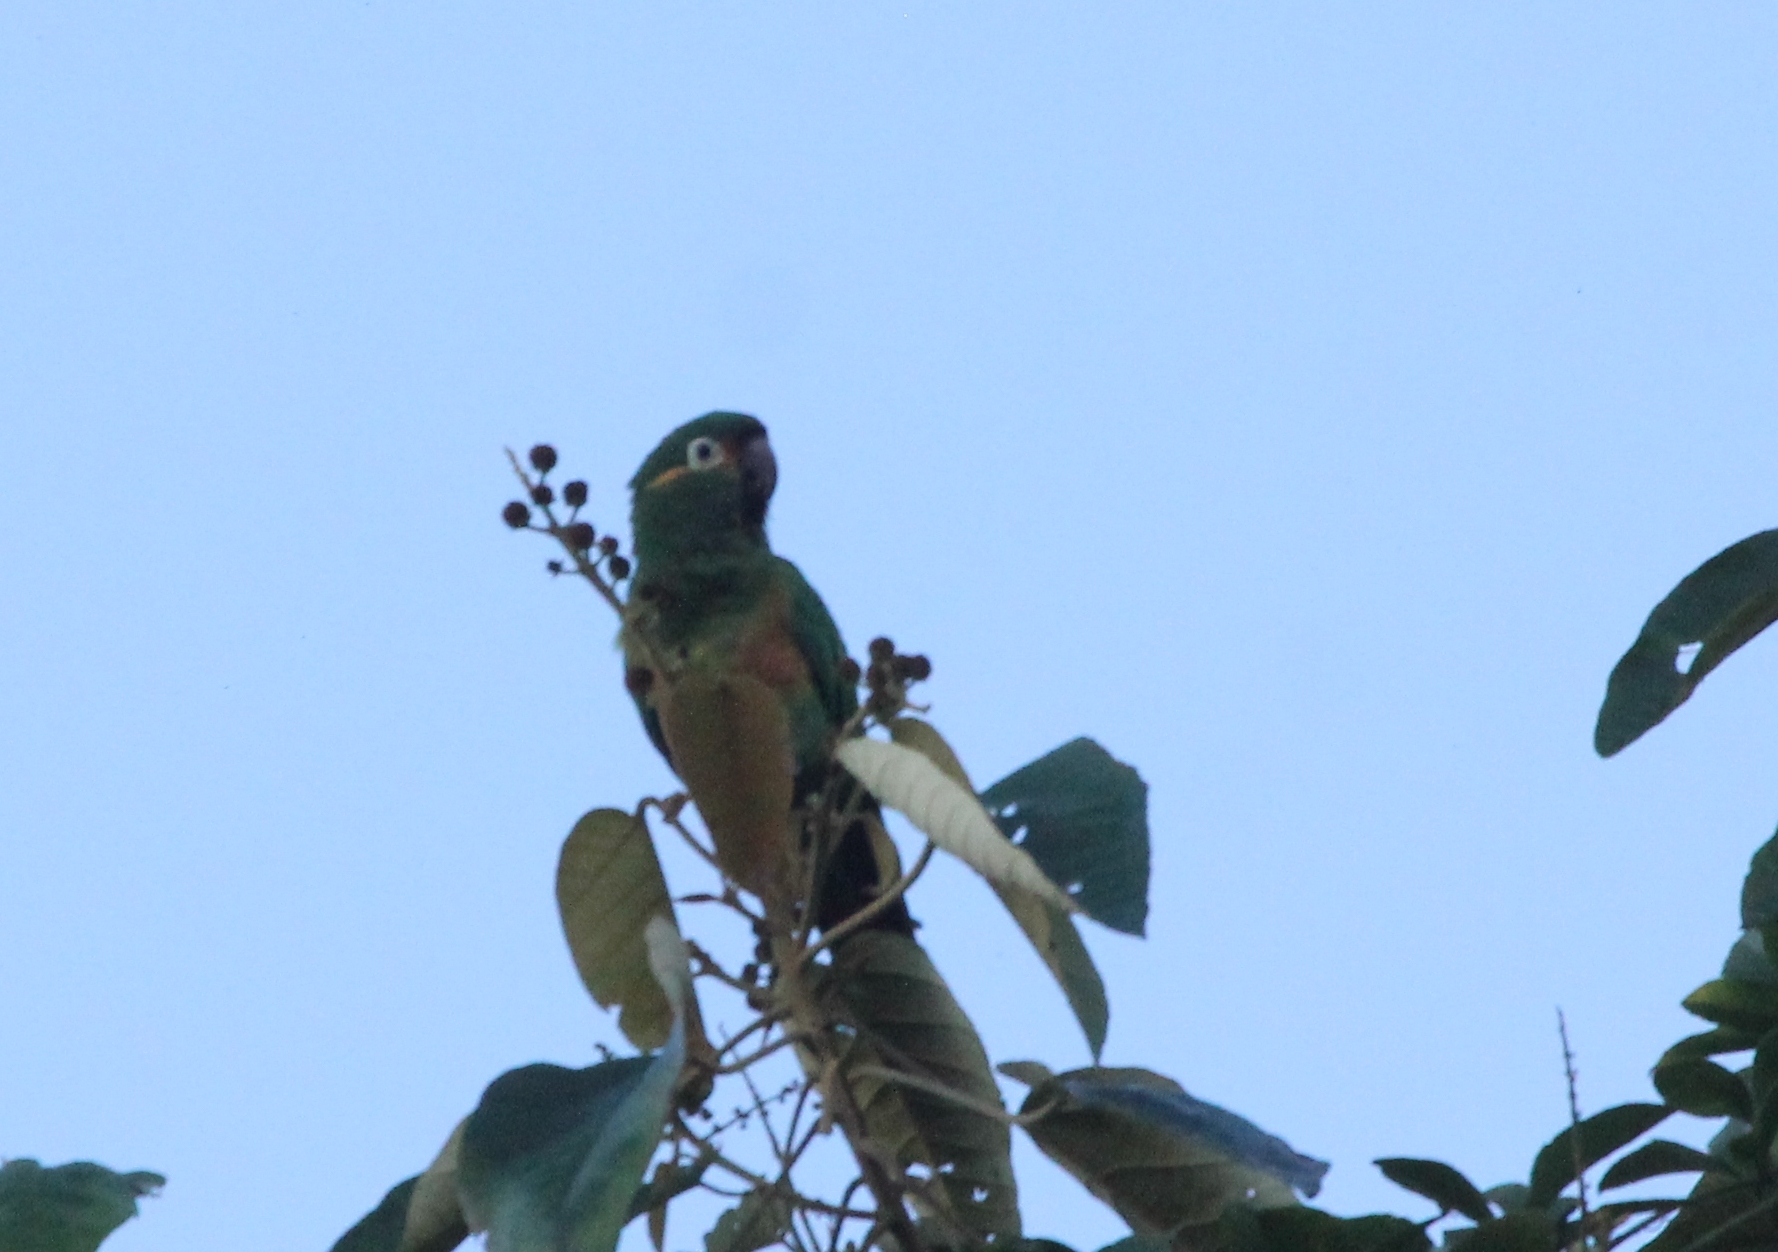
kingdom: Animalia
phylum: Chordata
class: Aves
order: Psittaciformes
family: Psittacidae
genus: Leptosittaca
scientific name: Leptosittaca branickii
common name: Golden-plumed parakeet
